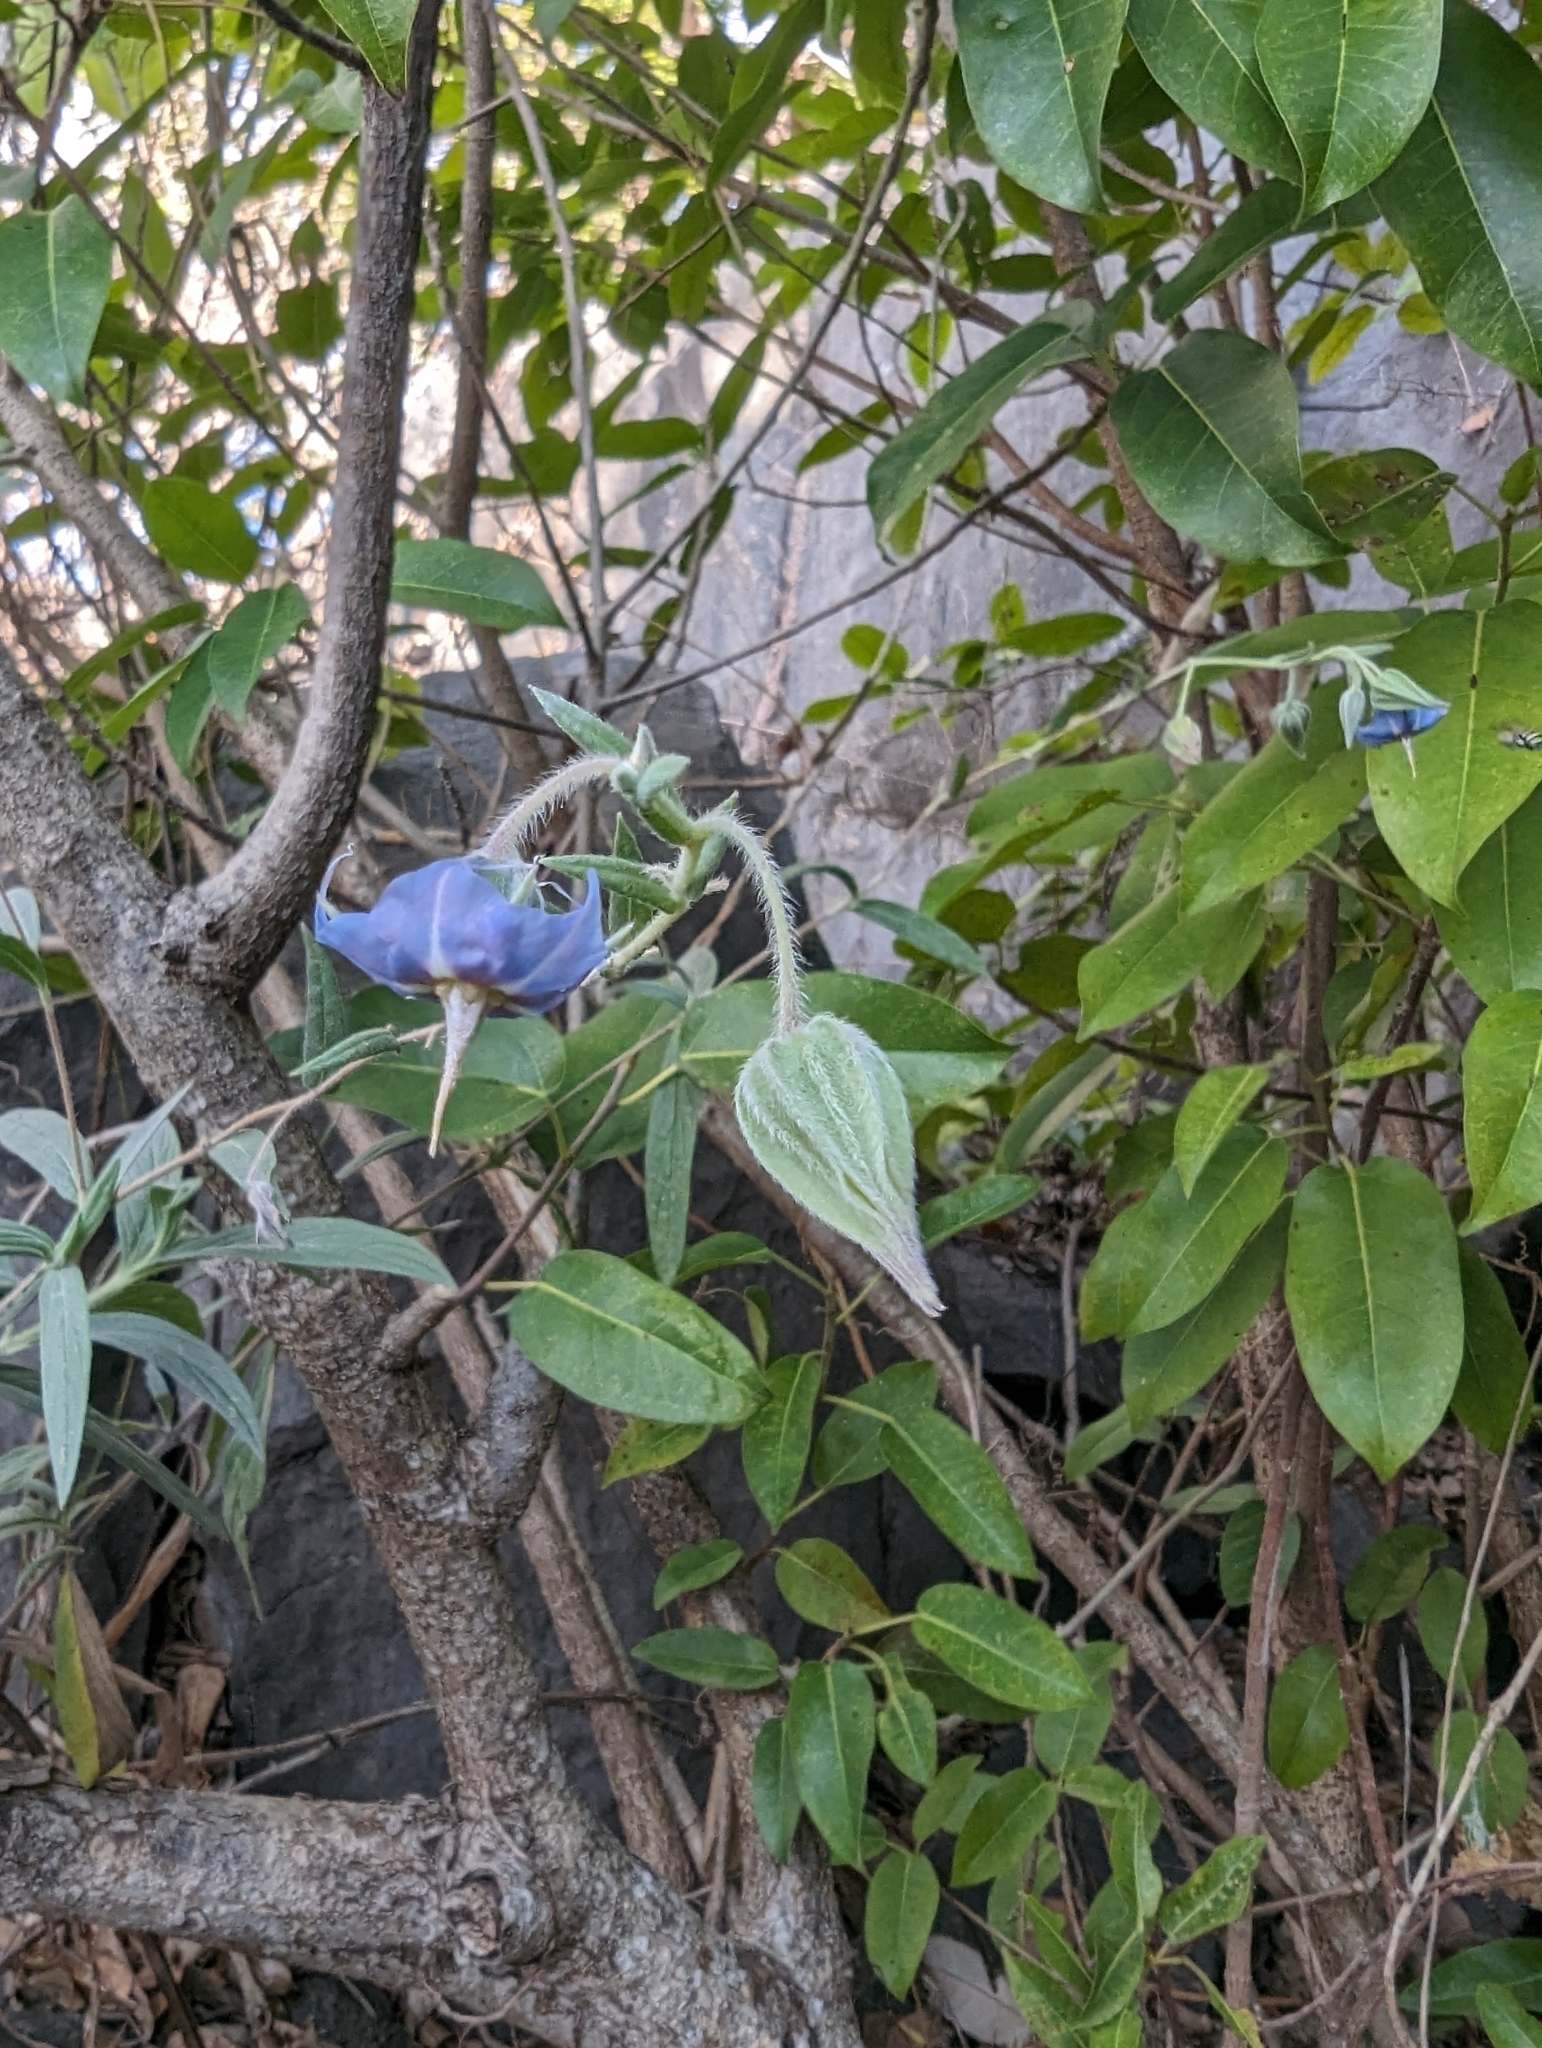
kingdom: Plantae
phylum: Tracheophyta
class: Magnoliopsida
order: Boraginales
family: Boraginaceae
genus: Trichodesma
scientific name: Trichodesma zeylanicum
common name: Camelbush
